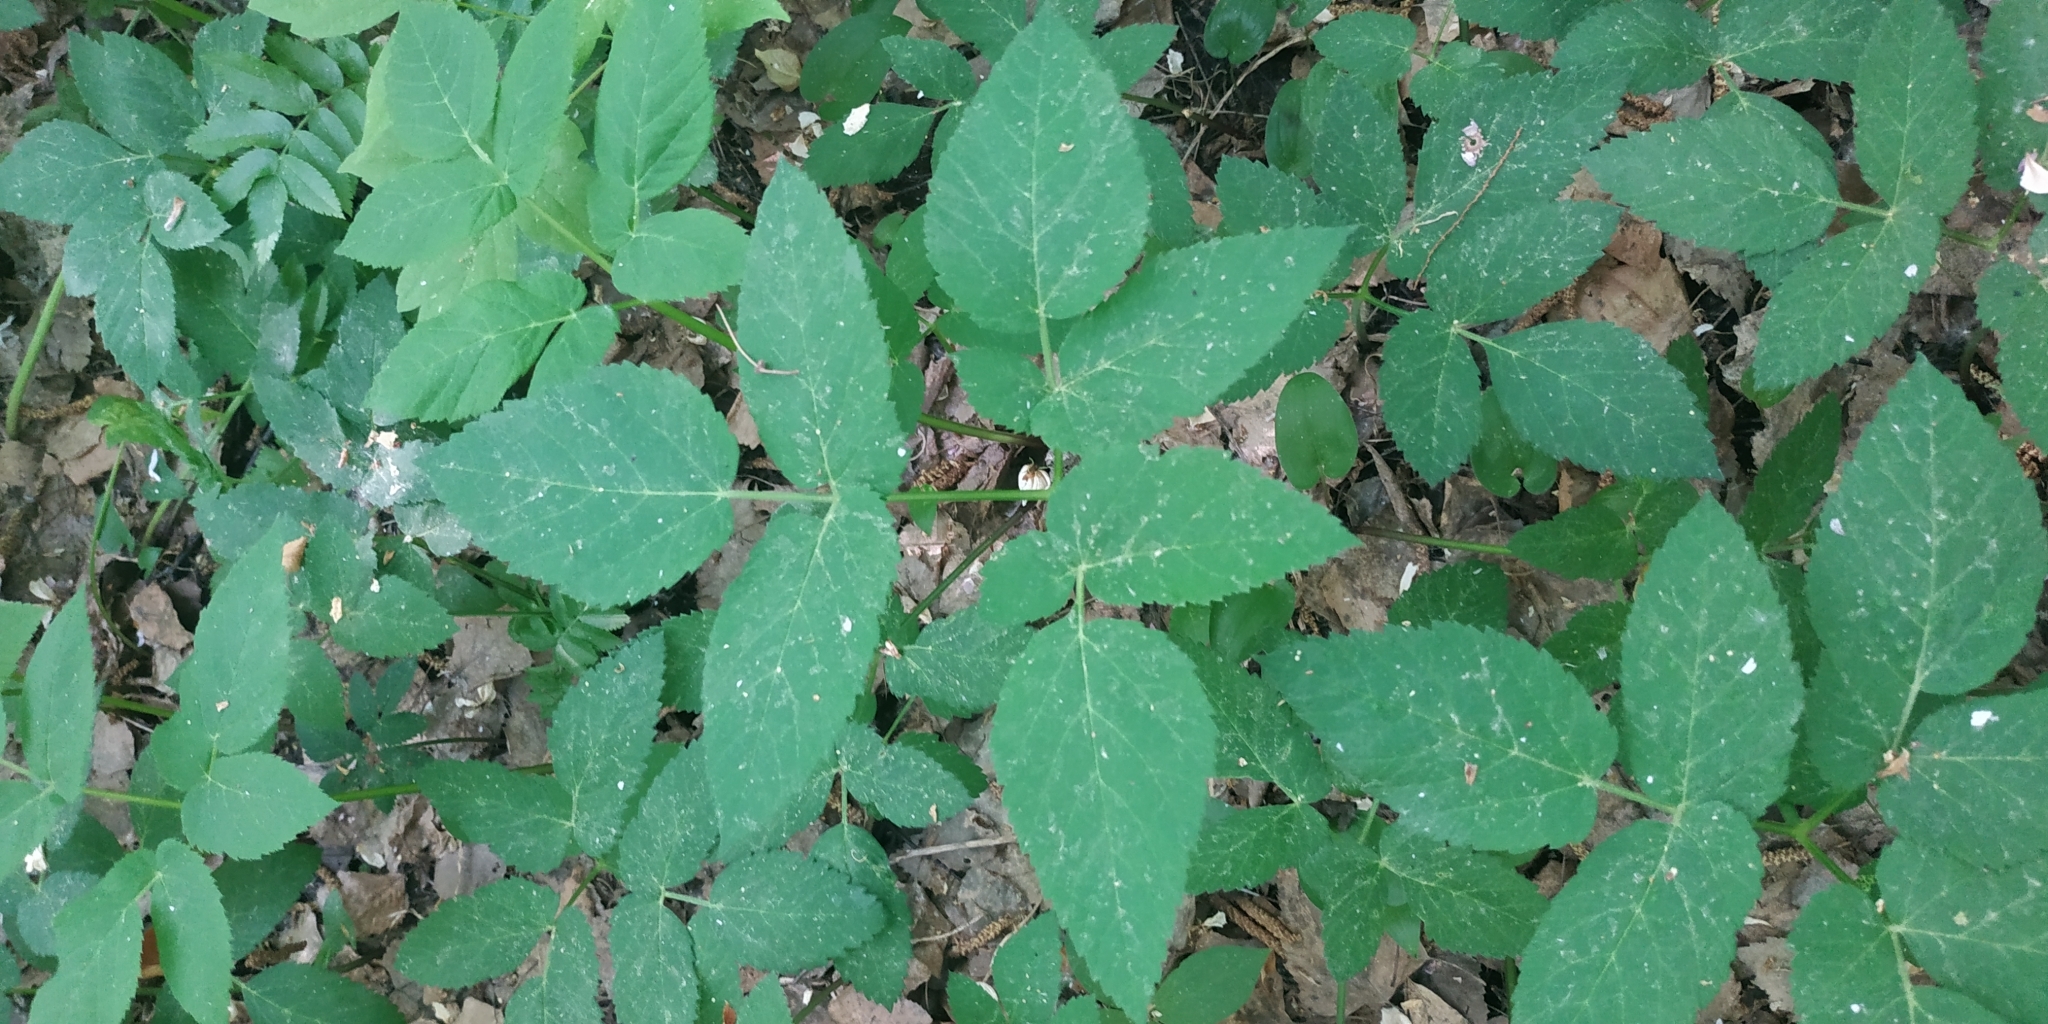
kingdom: Plantae
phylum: Tracheophyta
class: Magnoliopsida
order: Apiales
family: Apiaceae
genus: Aegopodium
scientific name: Aegopodium podagraria
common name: Ground-elder
